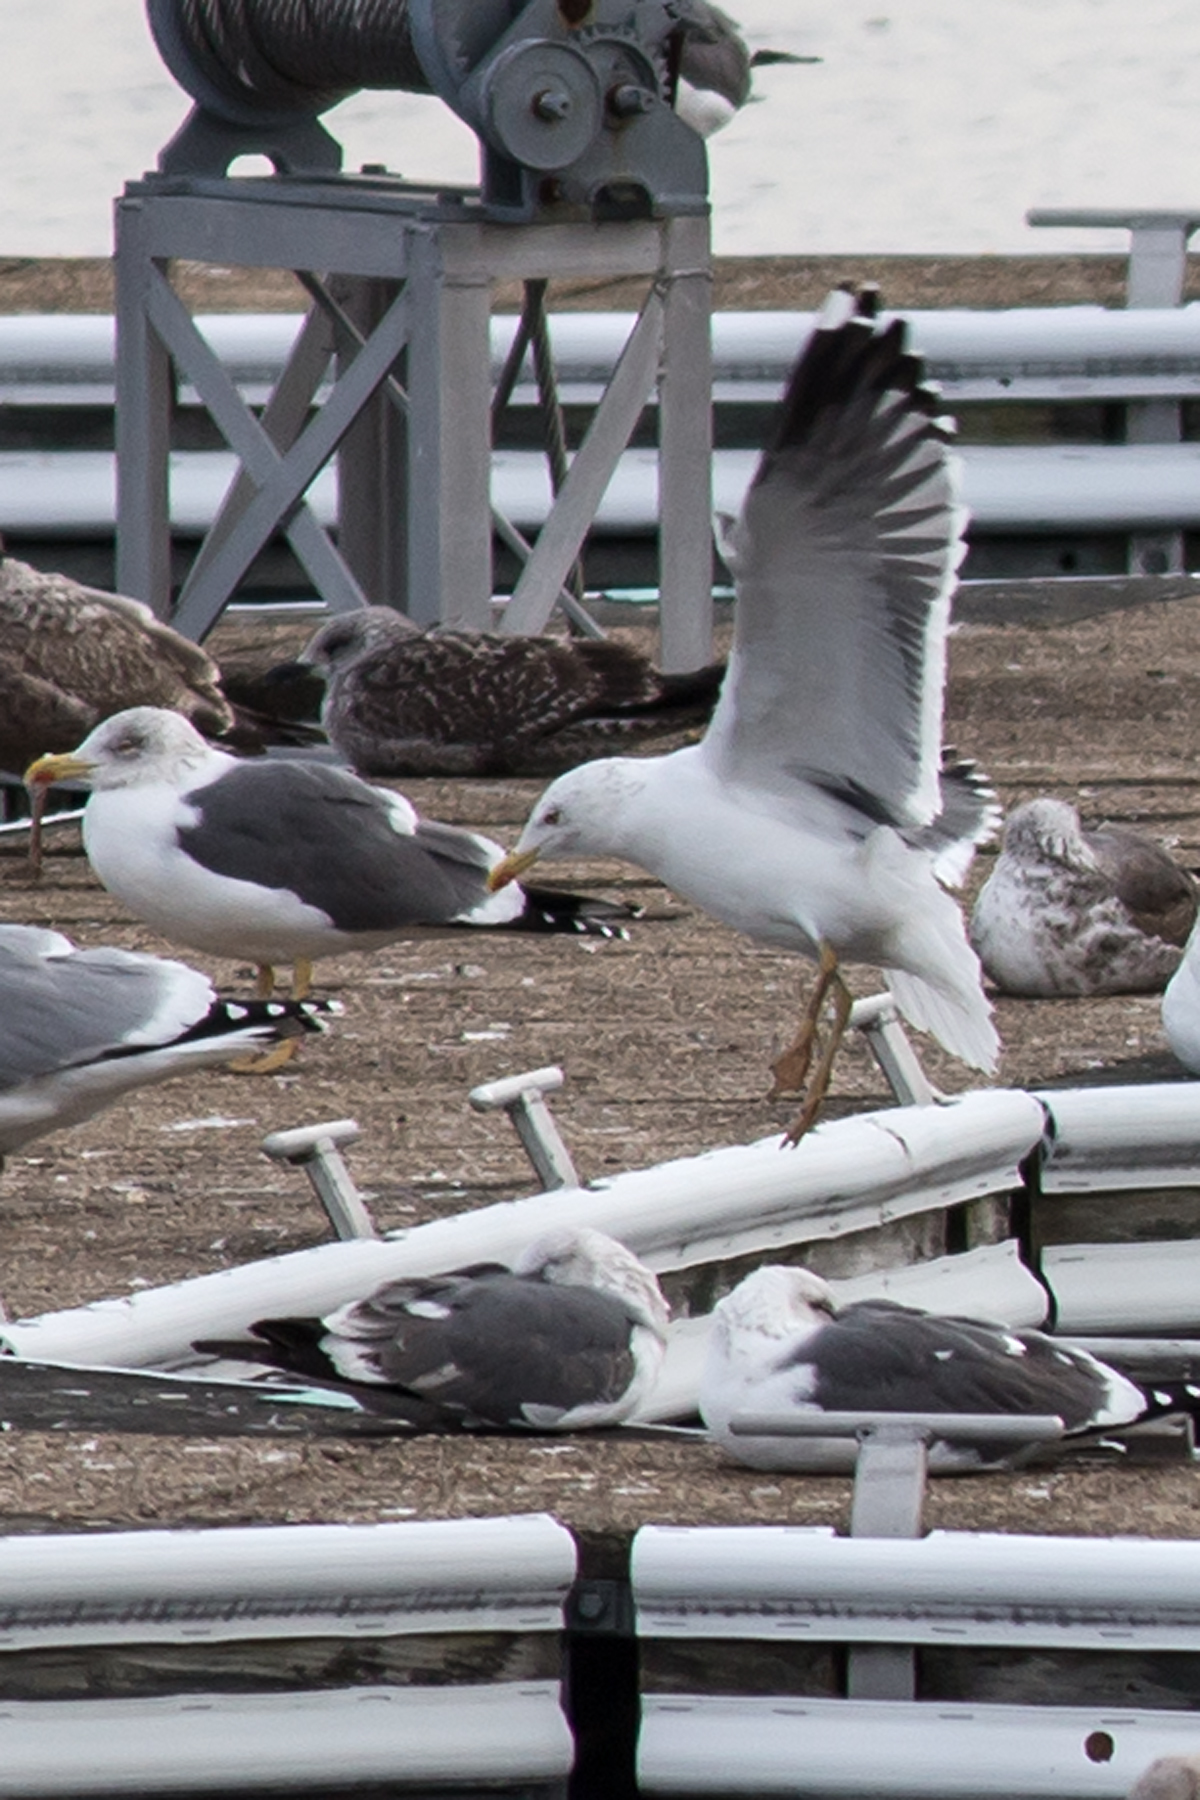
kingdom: Animalia
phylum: Chordata
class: Aves
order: Charadriiformes
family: Laridae
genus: Larus
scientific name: Larus fuscus
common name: Lesser black-backed gull
